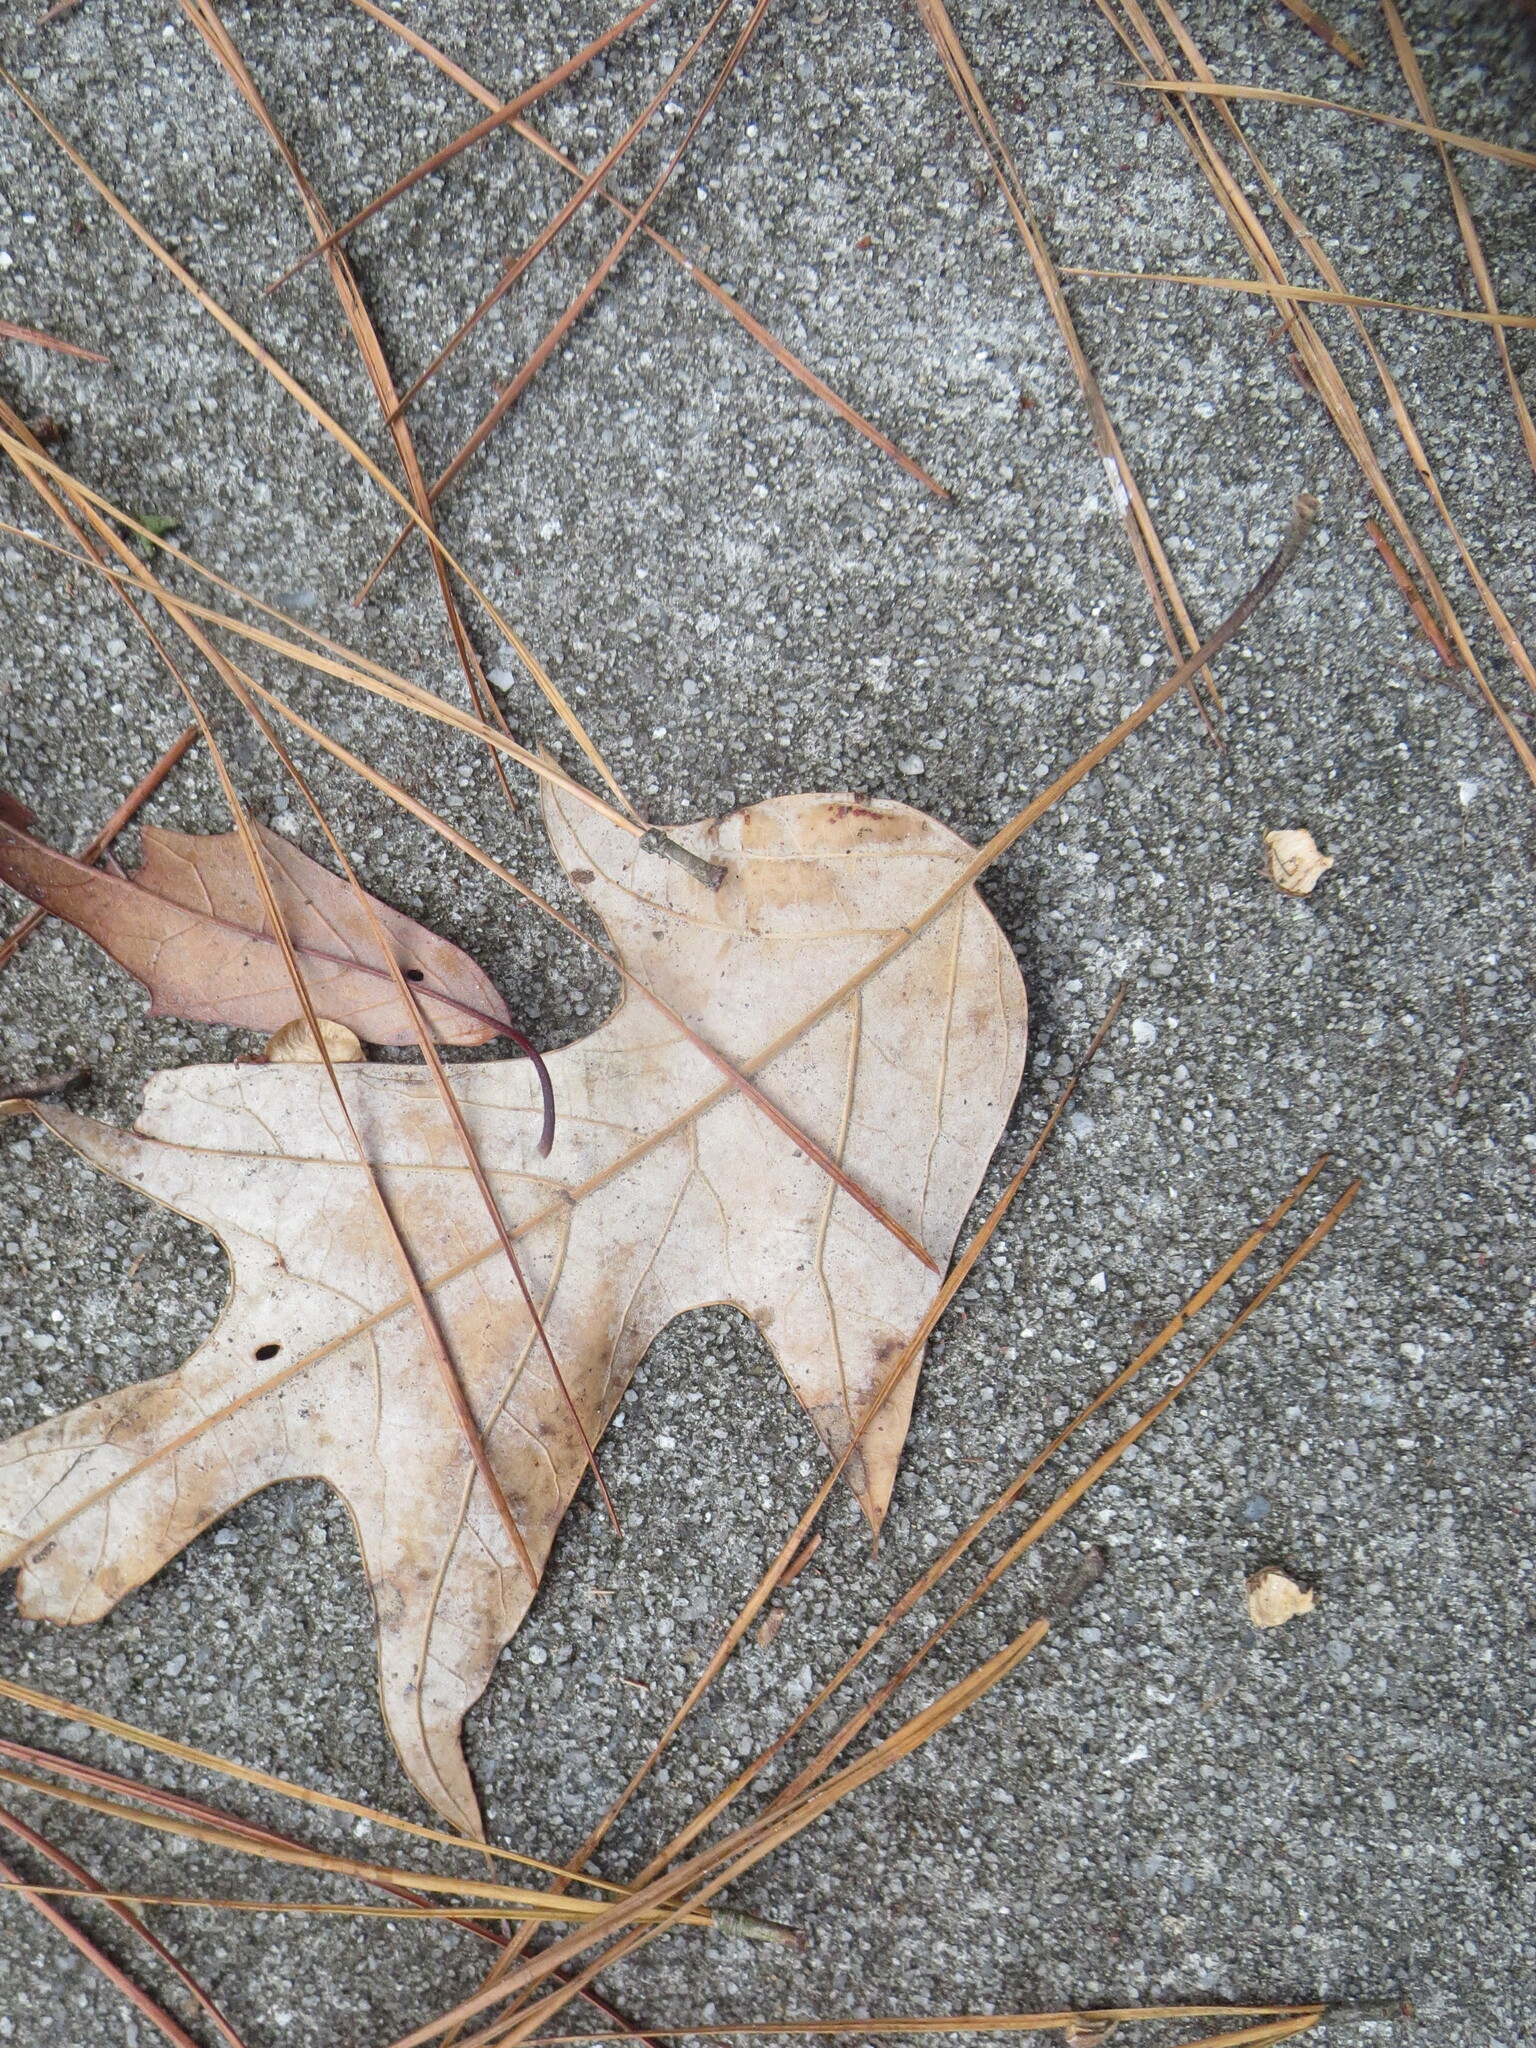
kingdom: Plantae
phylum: Tracheophyta
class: Magnoliopsida
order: Fagales
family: Fagaceae
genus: Quercus
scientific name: Quercus falcata
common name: Southern red oak
